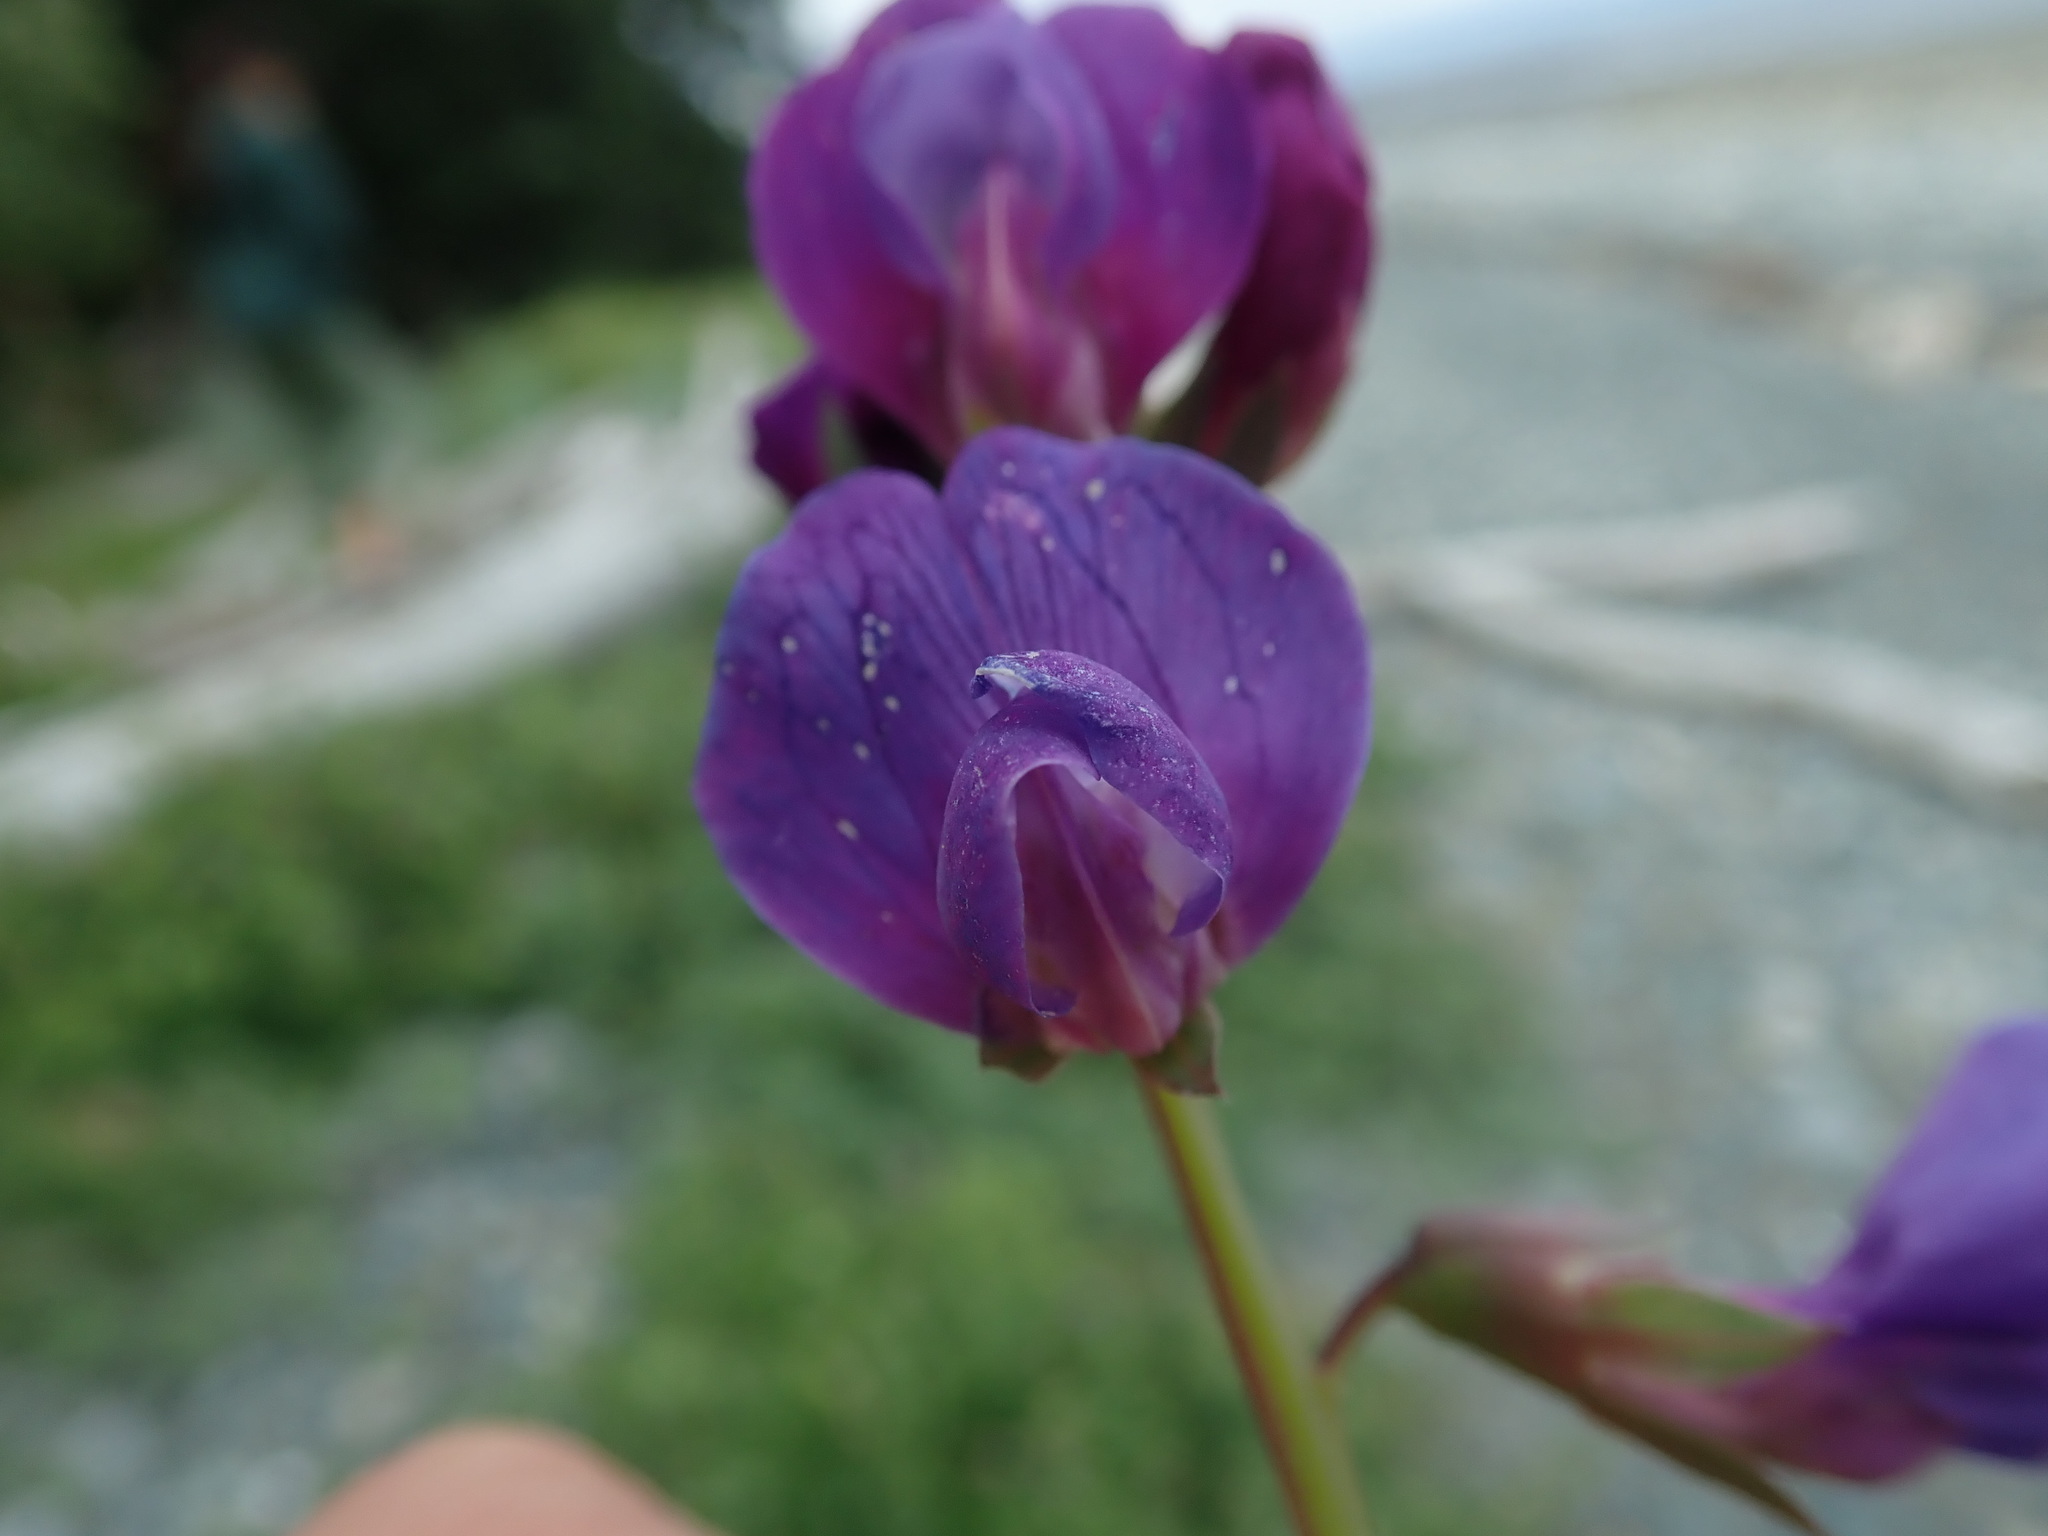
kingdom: Plantae
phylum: Tracheophyta
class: Magnoliopsida
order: Fabales
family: Fabaceae
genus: Lathyrus
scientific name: Lathyrus japonicus
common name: Sea pea
